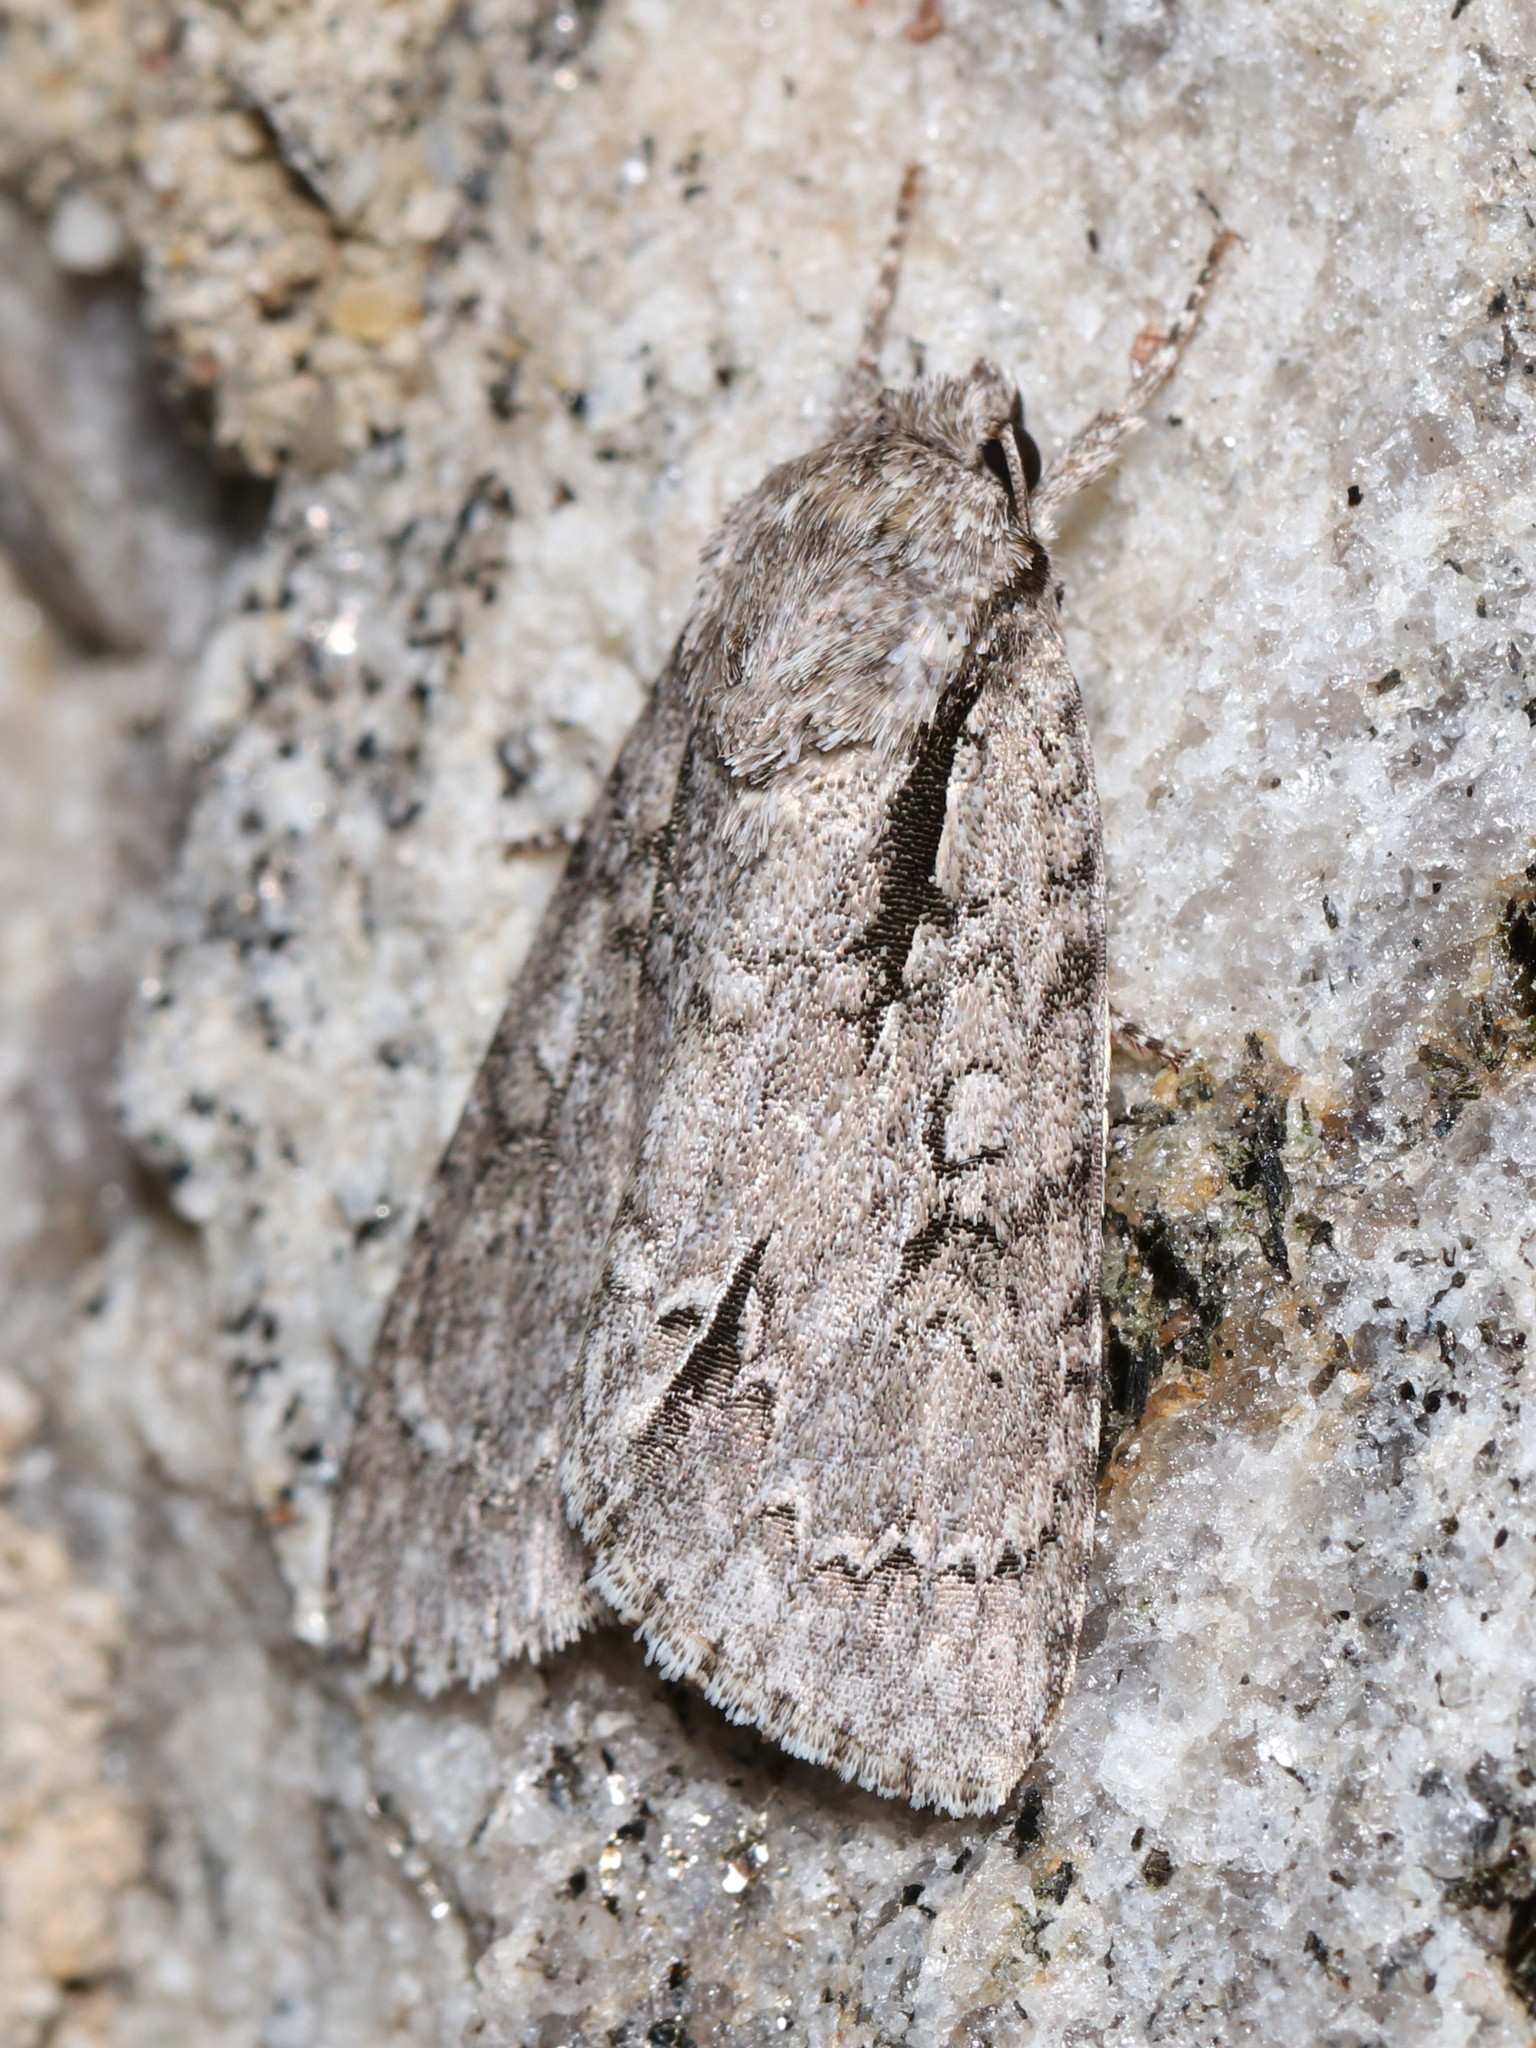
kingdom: Animalia
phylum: Arthropoda
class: Insecta
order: Lepidoptera
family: Noctuidae
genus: Acronicta
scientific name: Acronicta hasta
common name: Cherry dagger
